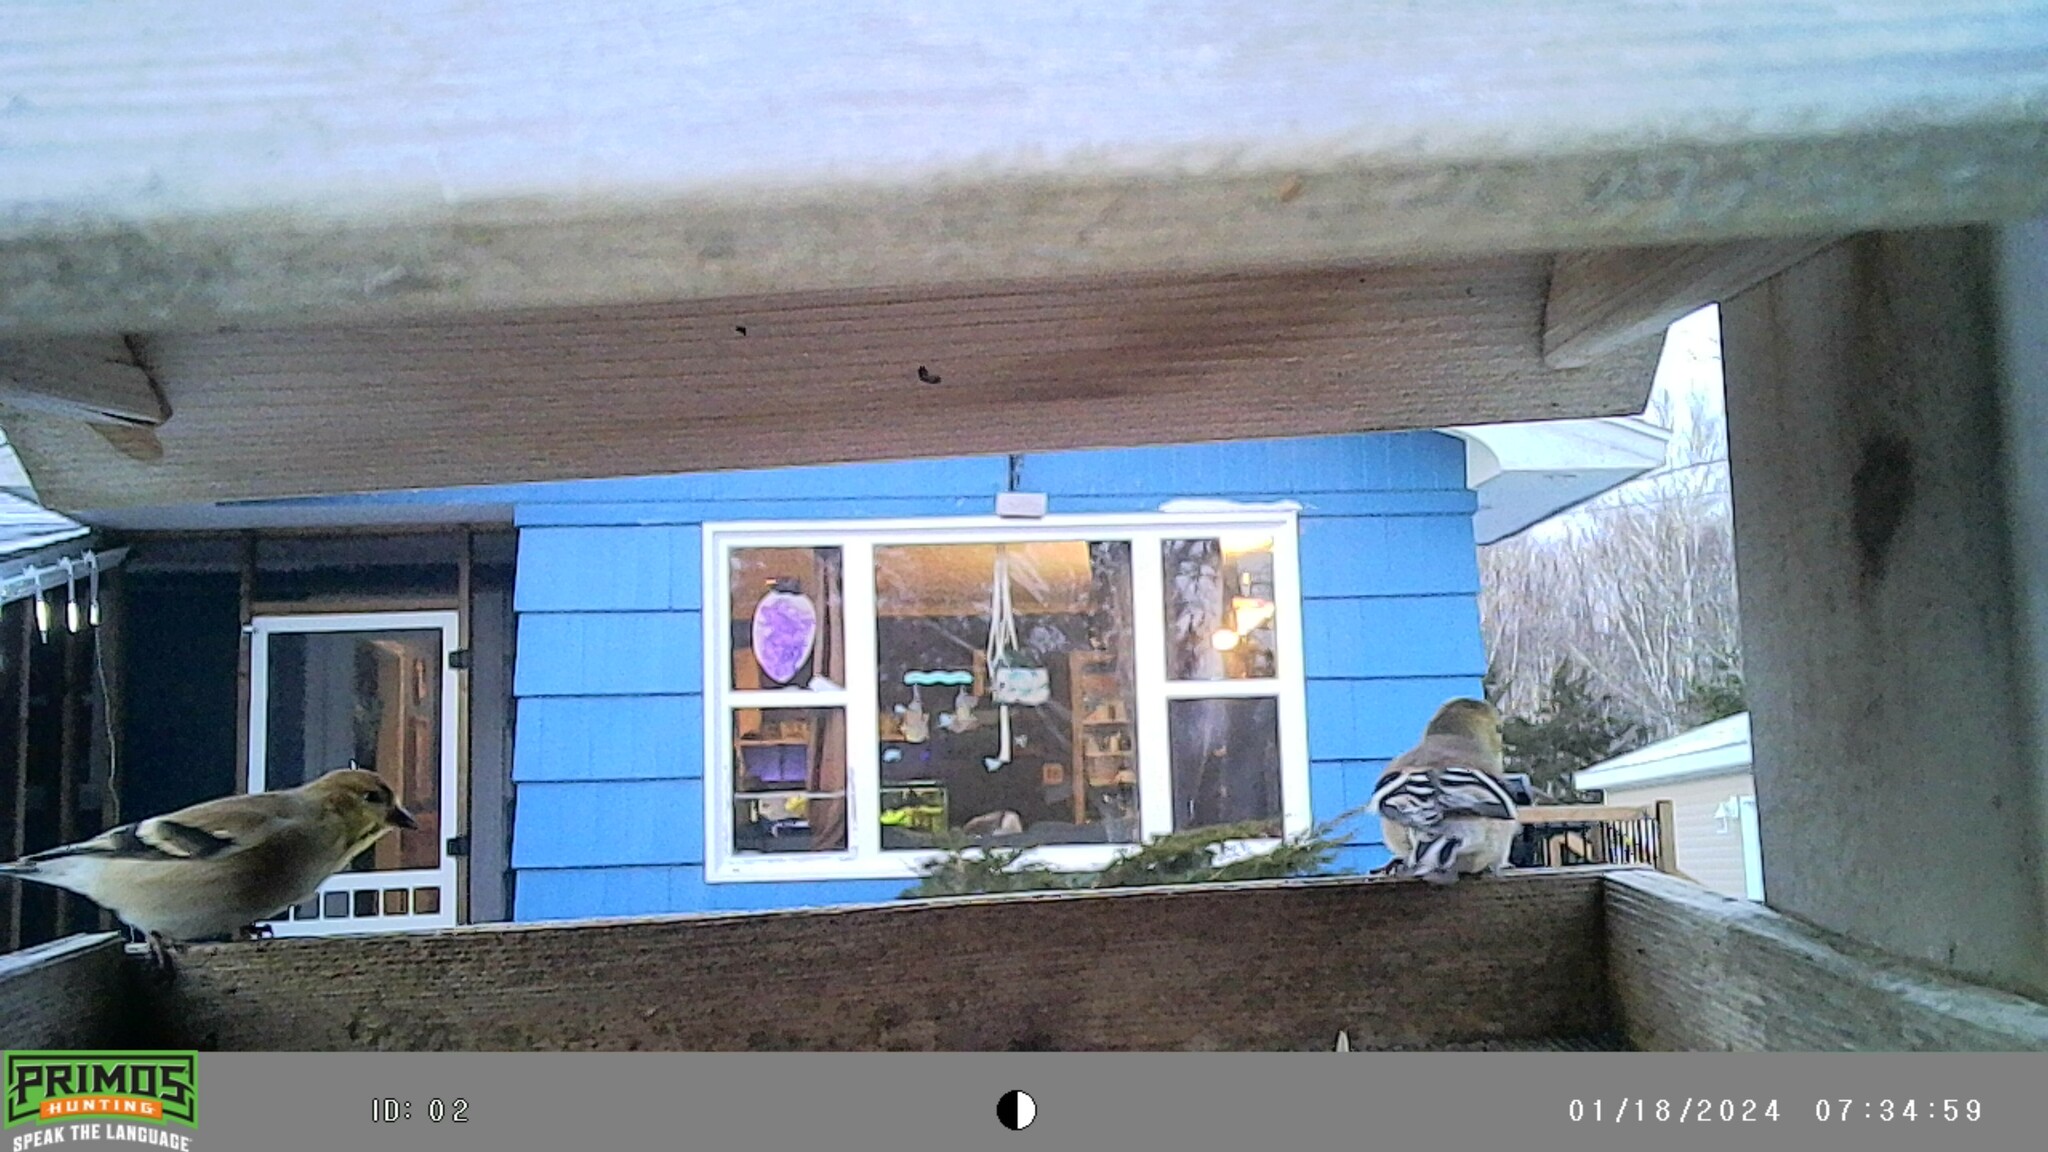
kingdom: Animalia
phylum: Chordata
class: Aves
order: Passeriformes
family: Fringillidae
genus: Spinus
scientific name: Spinus tristis
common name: American goldfinch
